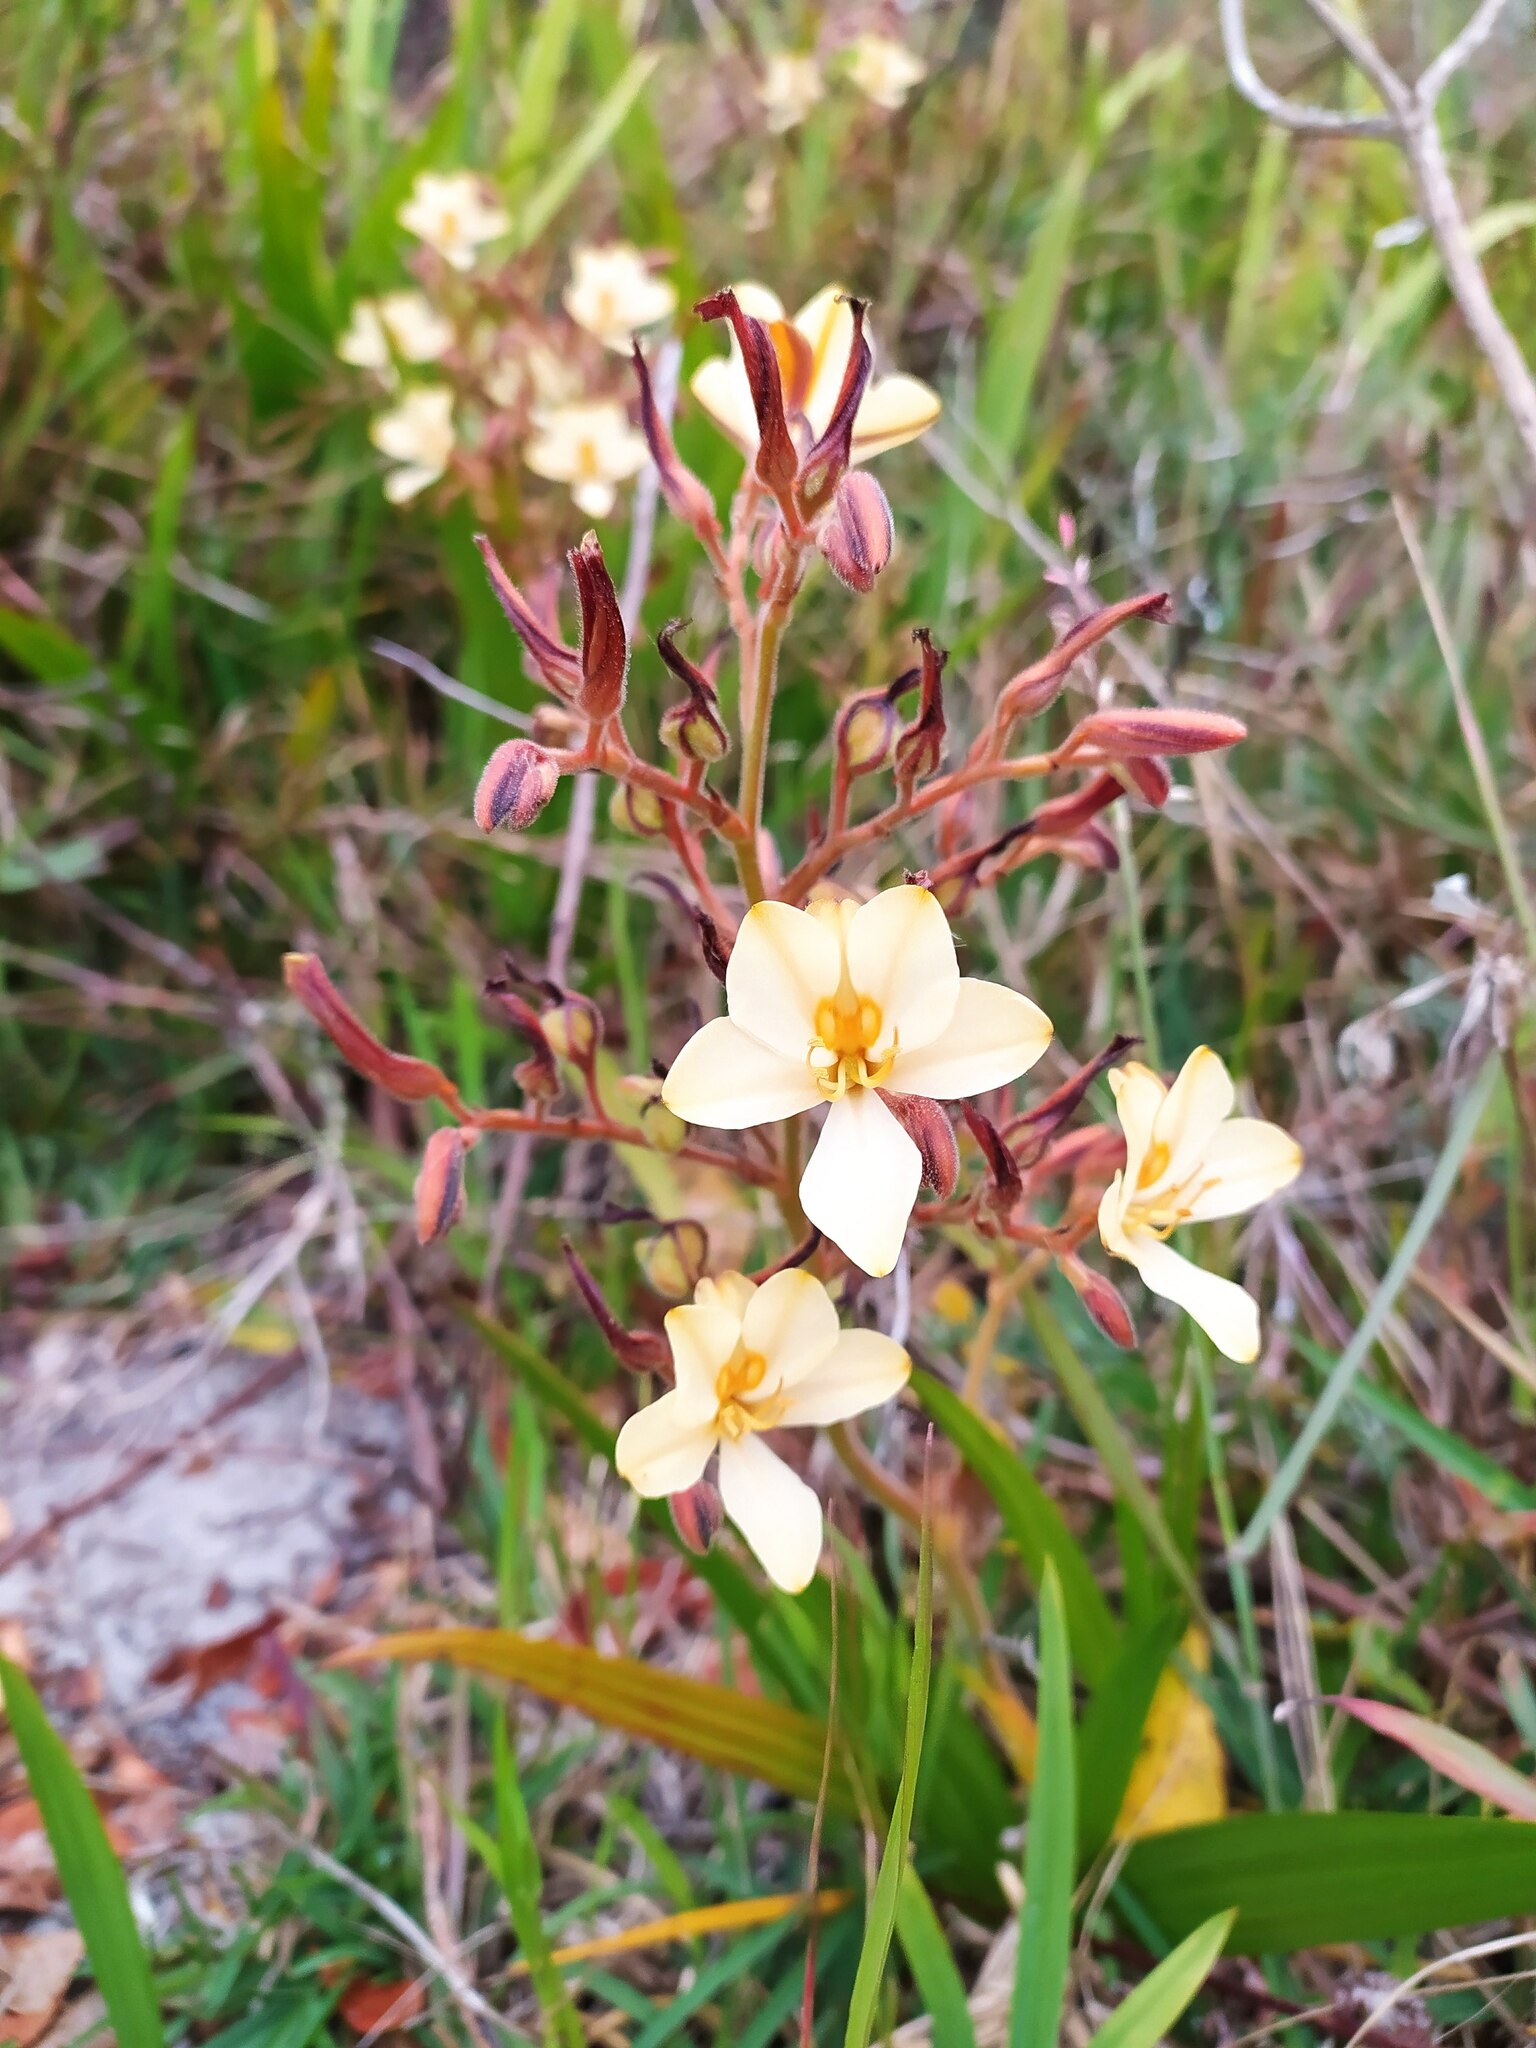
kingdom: Plantae
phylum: Tracheophyta
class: Liliopsida
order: Commelinales
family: Haemodoraceae
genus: Wachendorfia
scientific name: Wachendorfia paniculata
